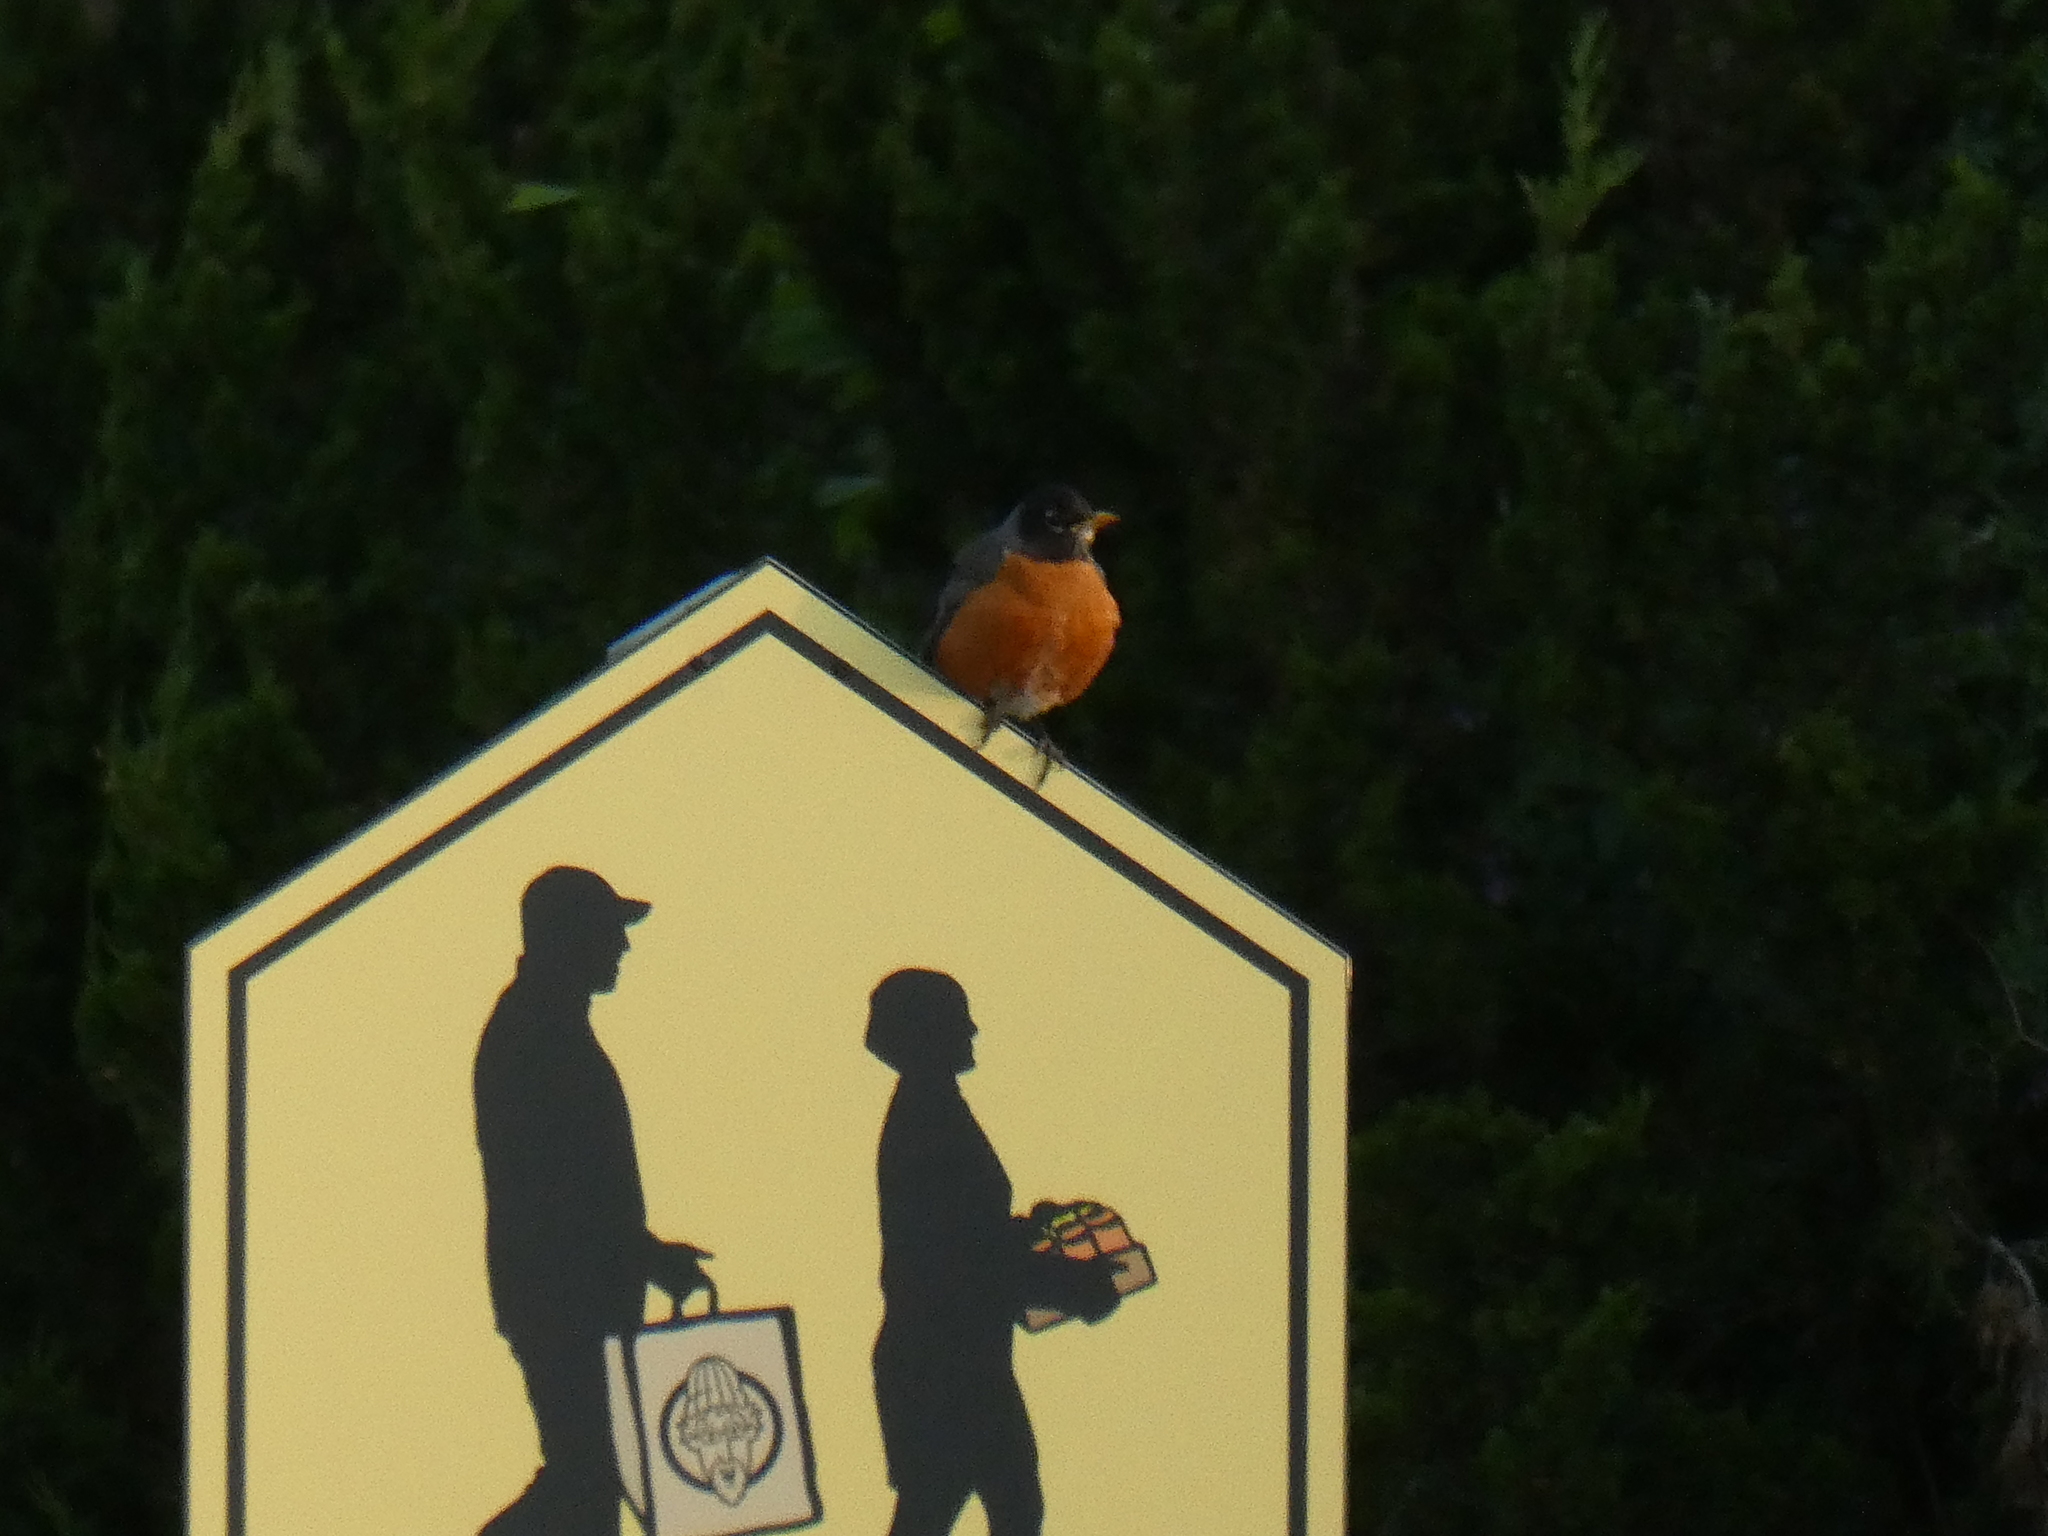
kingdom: Animalia
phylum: Chordata
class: Aves
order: Passeriformes
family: Turdidae
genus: Turdus
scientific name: Turdus migratorius
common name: American robin
